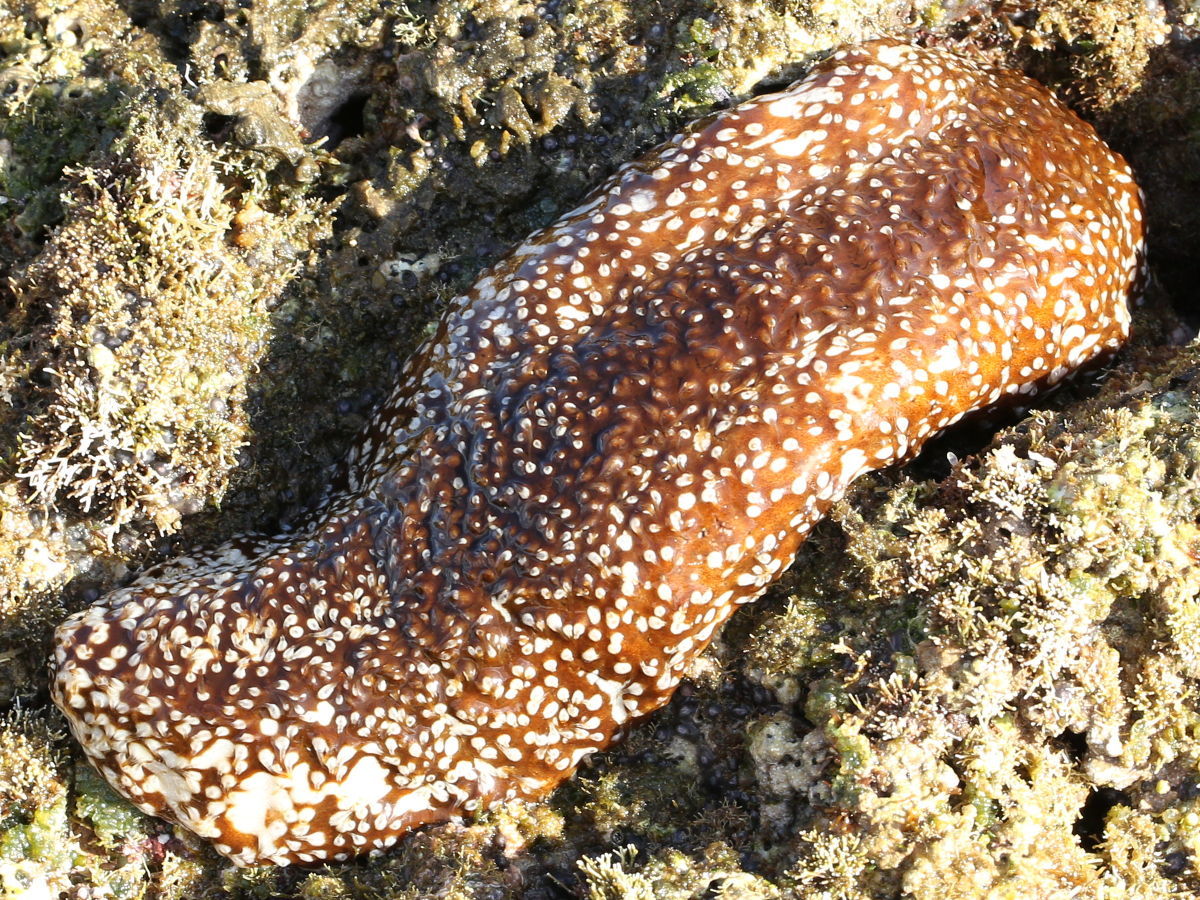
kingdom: Animalia
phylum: Echinodermata
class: Holothuroidea
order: Holothuriida
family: Holothuriidae
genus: Actinopyga
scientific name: Actinopyga varians
